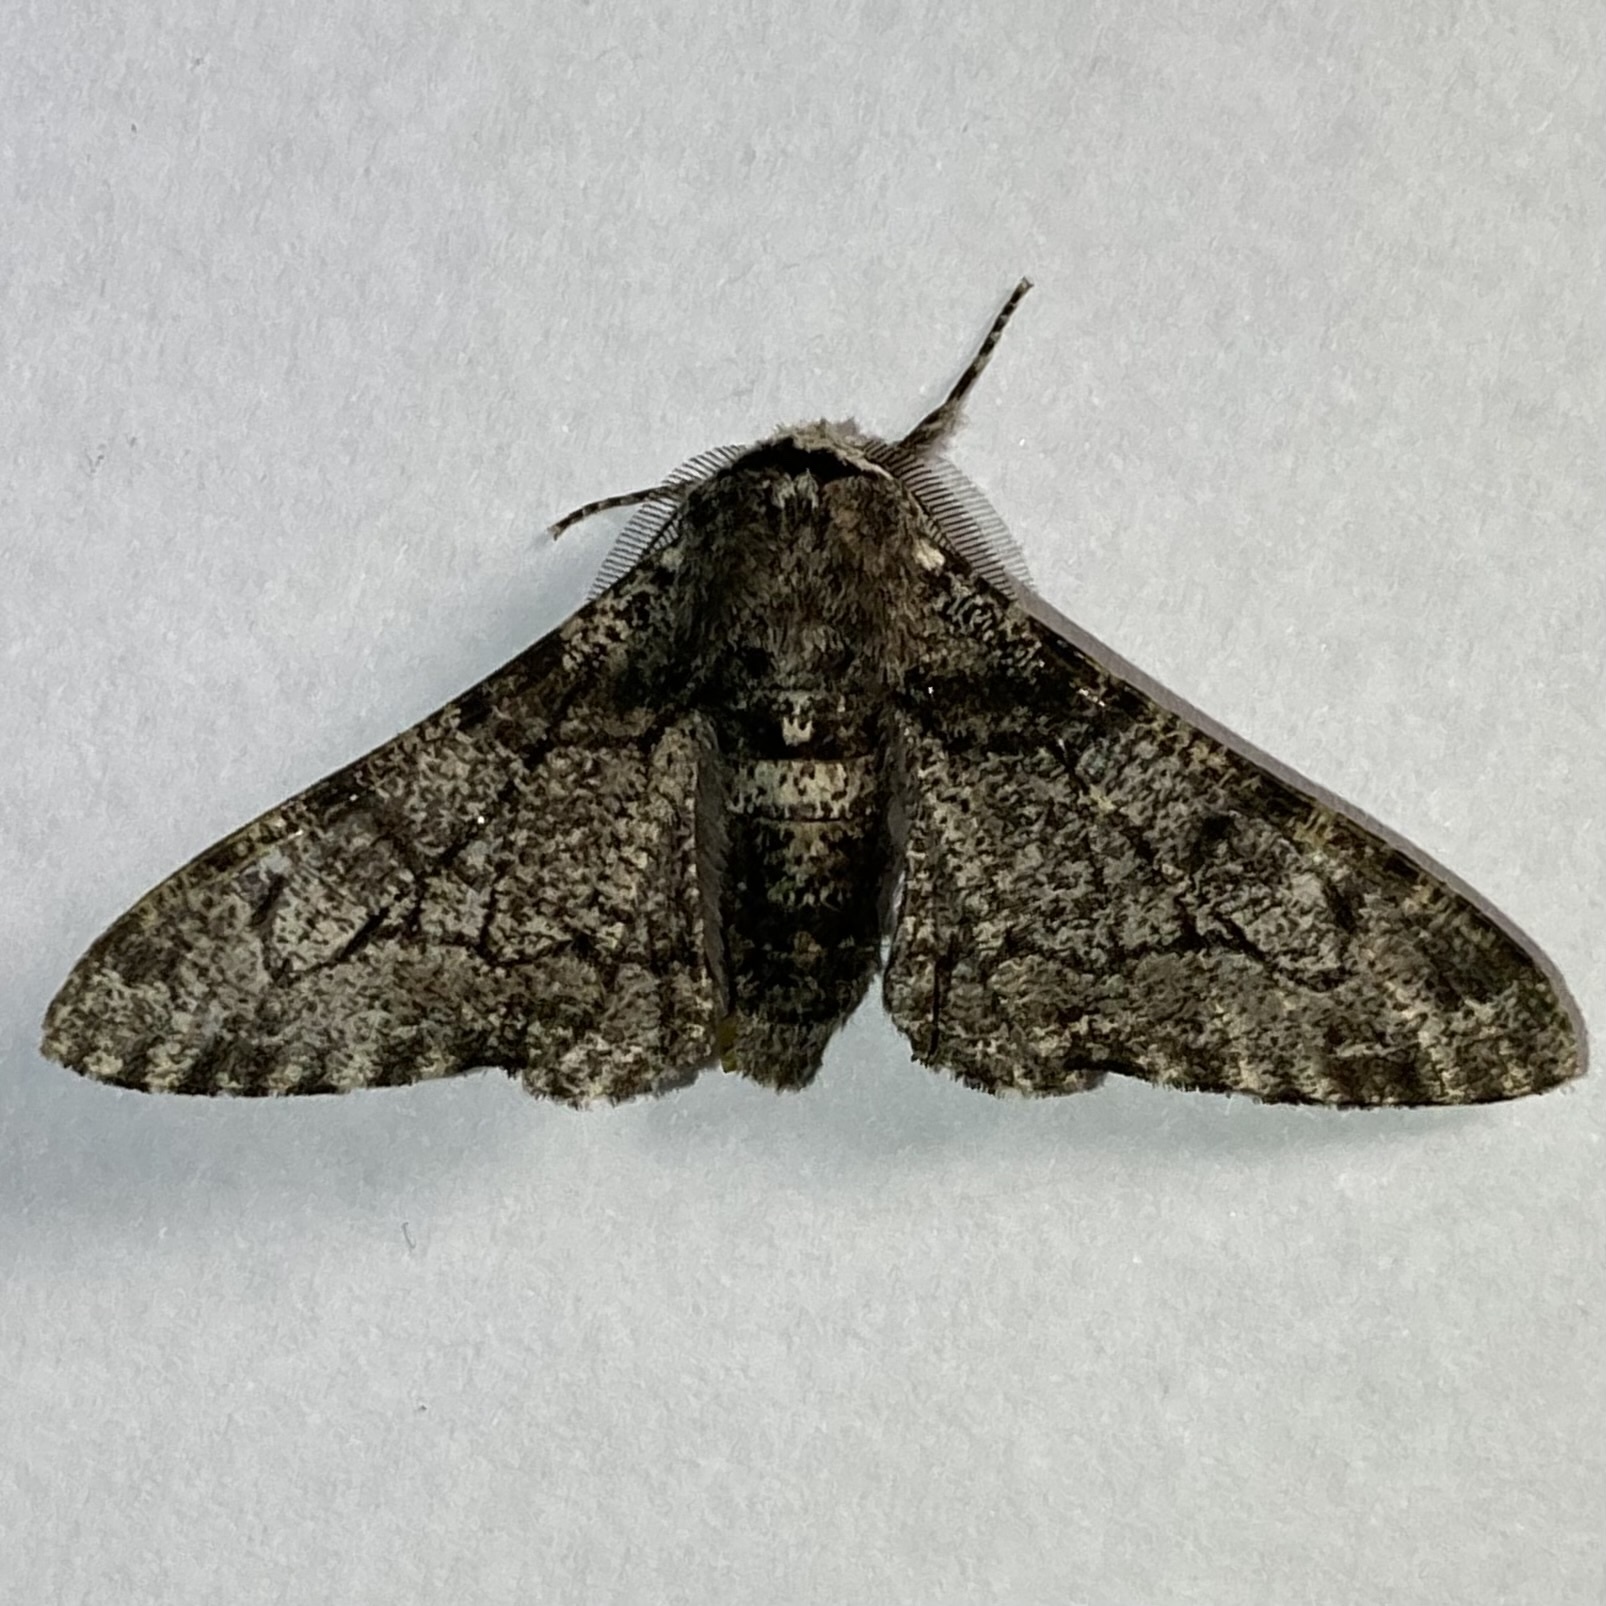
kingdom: Animalia
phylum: Arthropoda
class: Insecta
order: Lepidoptera
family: Geometridae
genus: Biston
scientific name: Biston betularia
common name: Peppered moth
